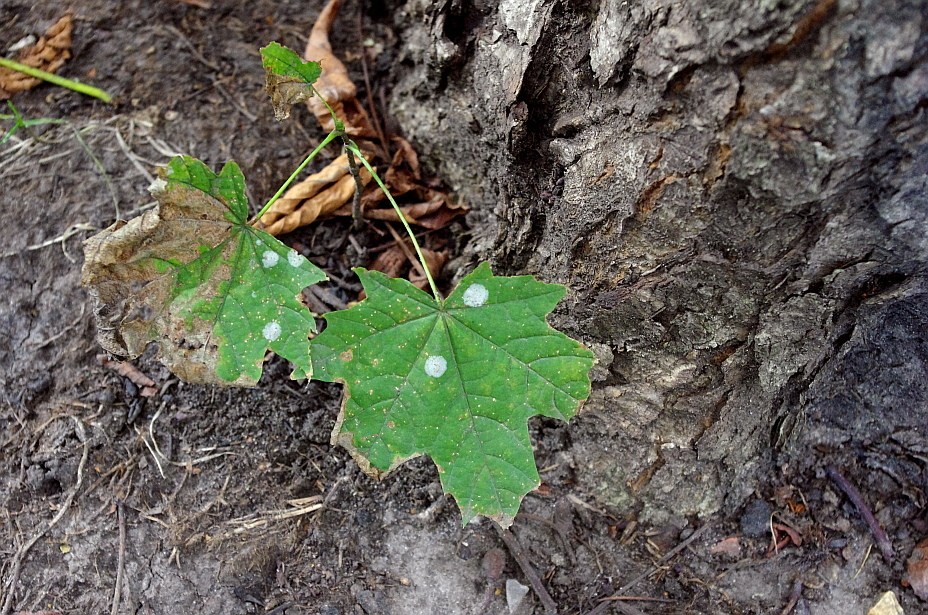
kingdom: Plantae
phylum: Tracheophyta
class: Magnoliopsida
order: Sapindales
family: Sapindaceae
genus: Acer
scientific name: Acer platanoides
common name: Norway maple
